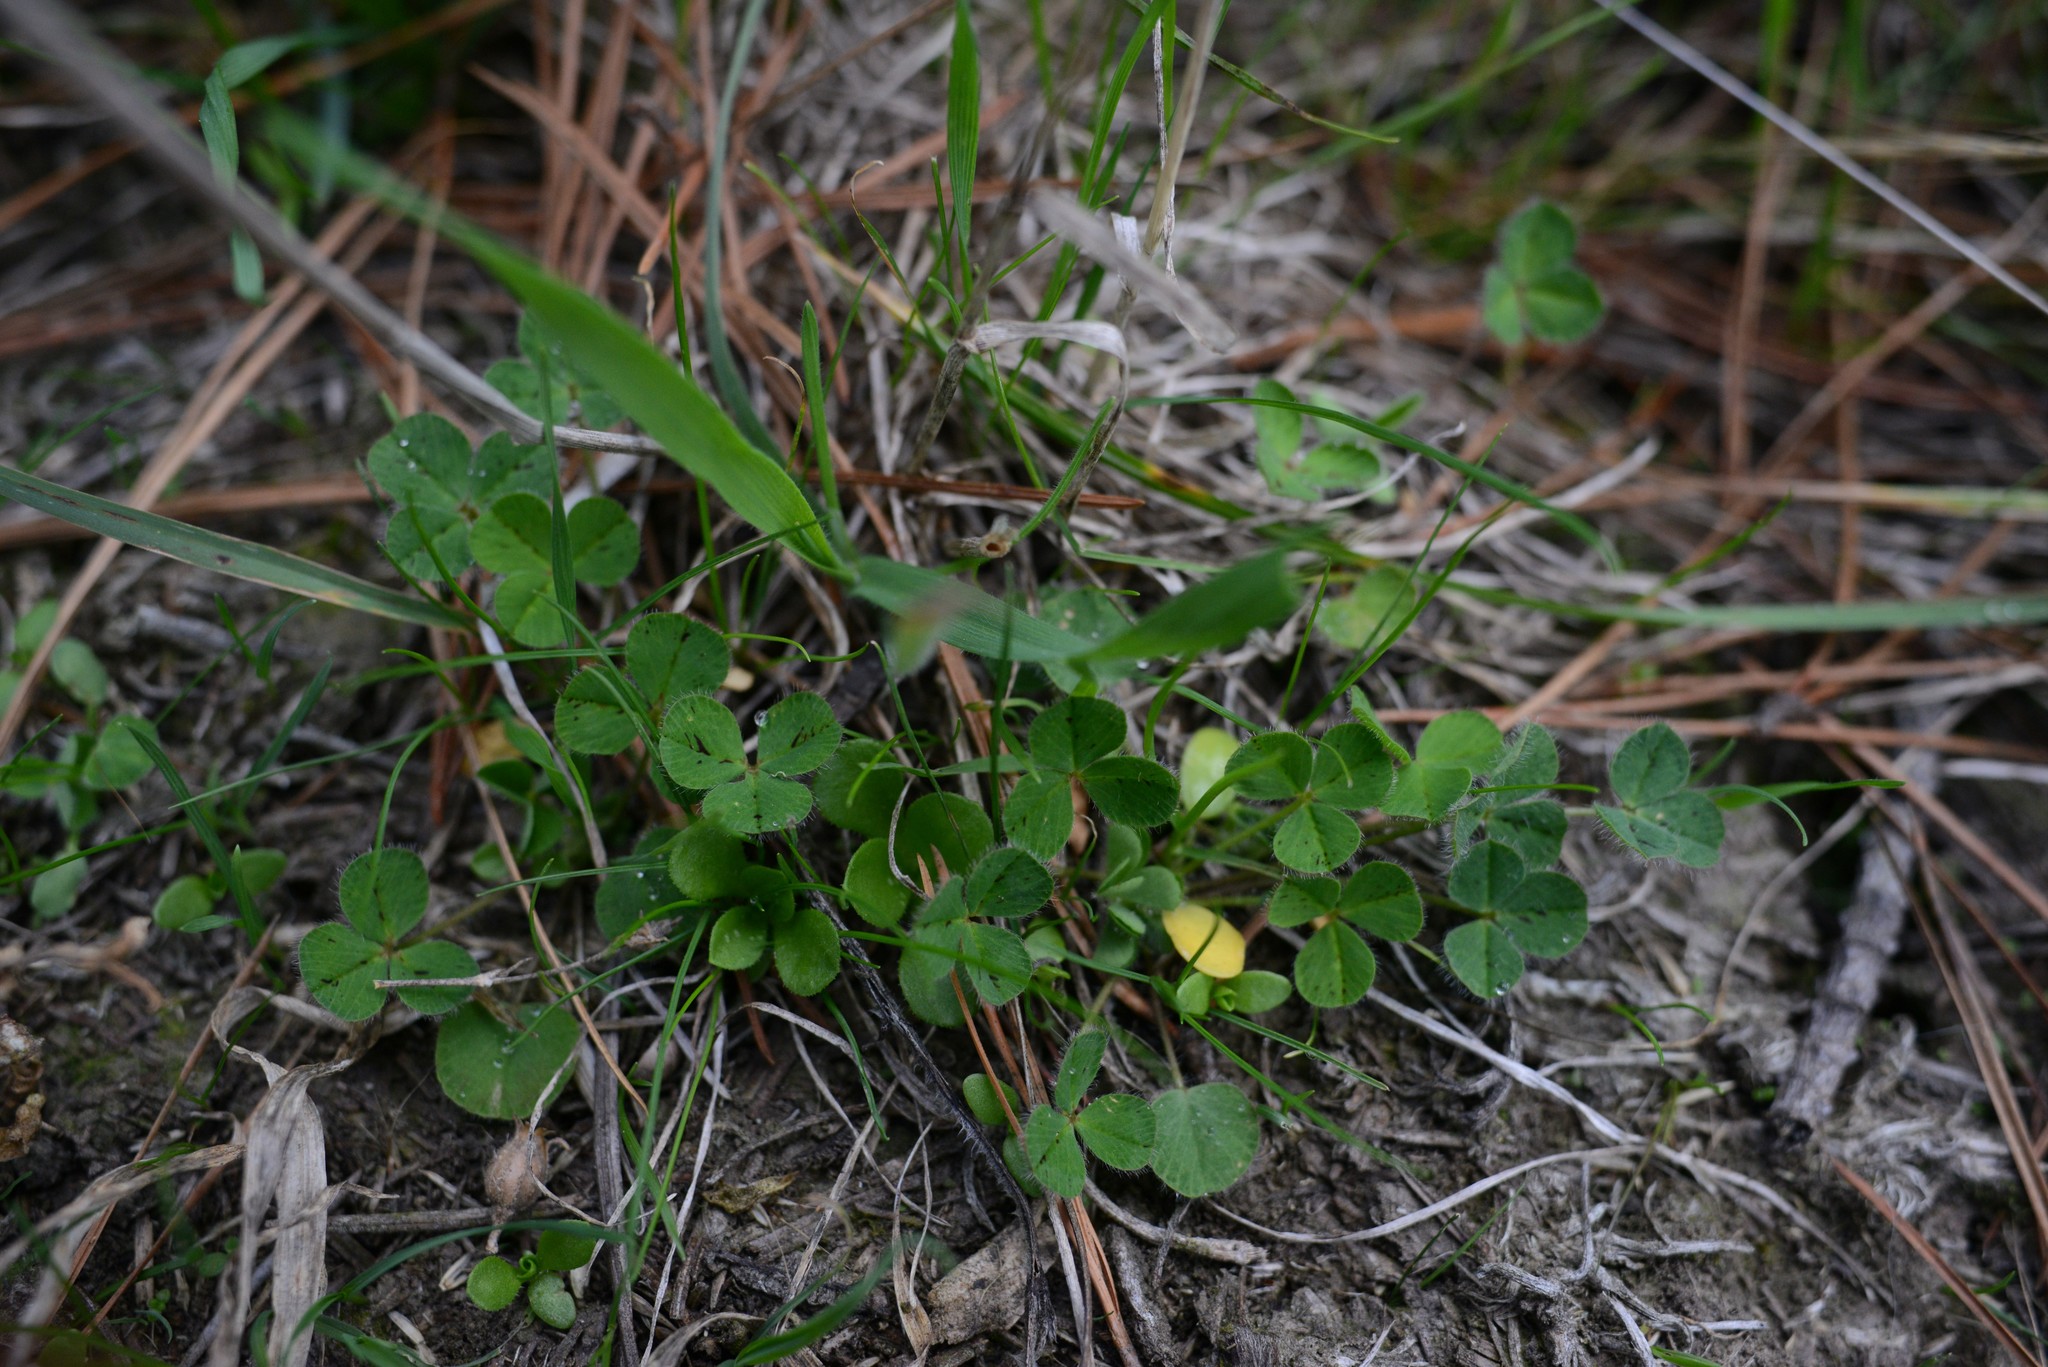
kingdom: Plantae
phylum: Tracheophyta
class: Magnoliopsida
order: Fabales
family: Fabaceae
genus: Trifolium
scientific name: Trifolium subterraneum
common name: Subterranean clover
